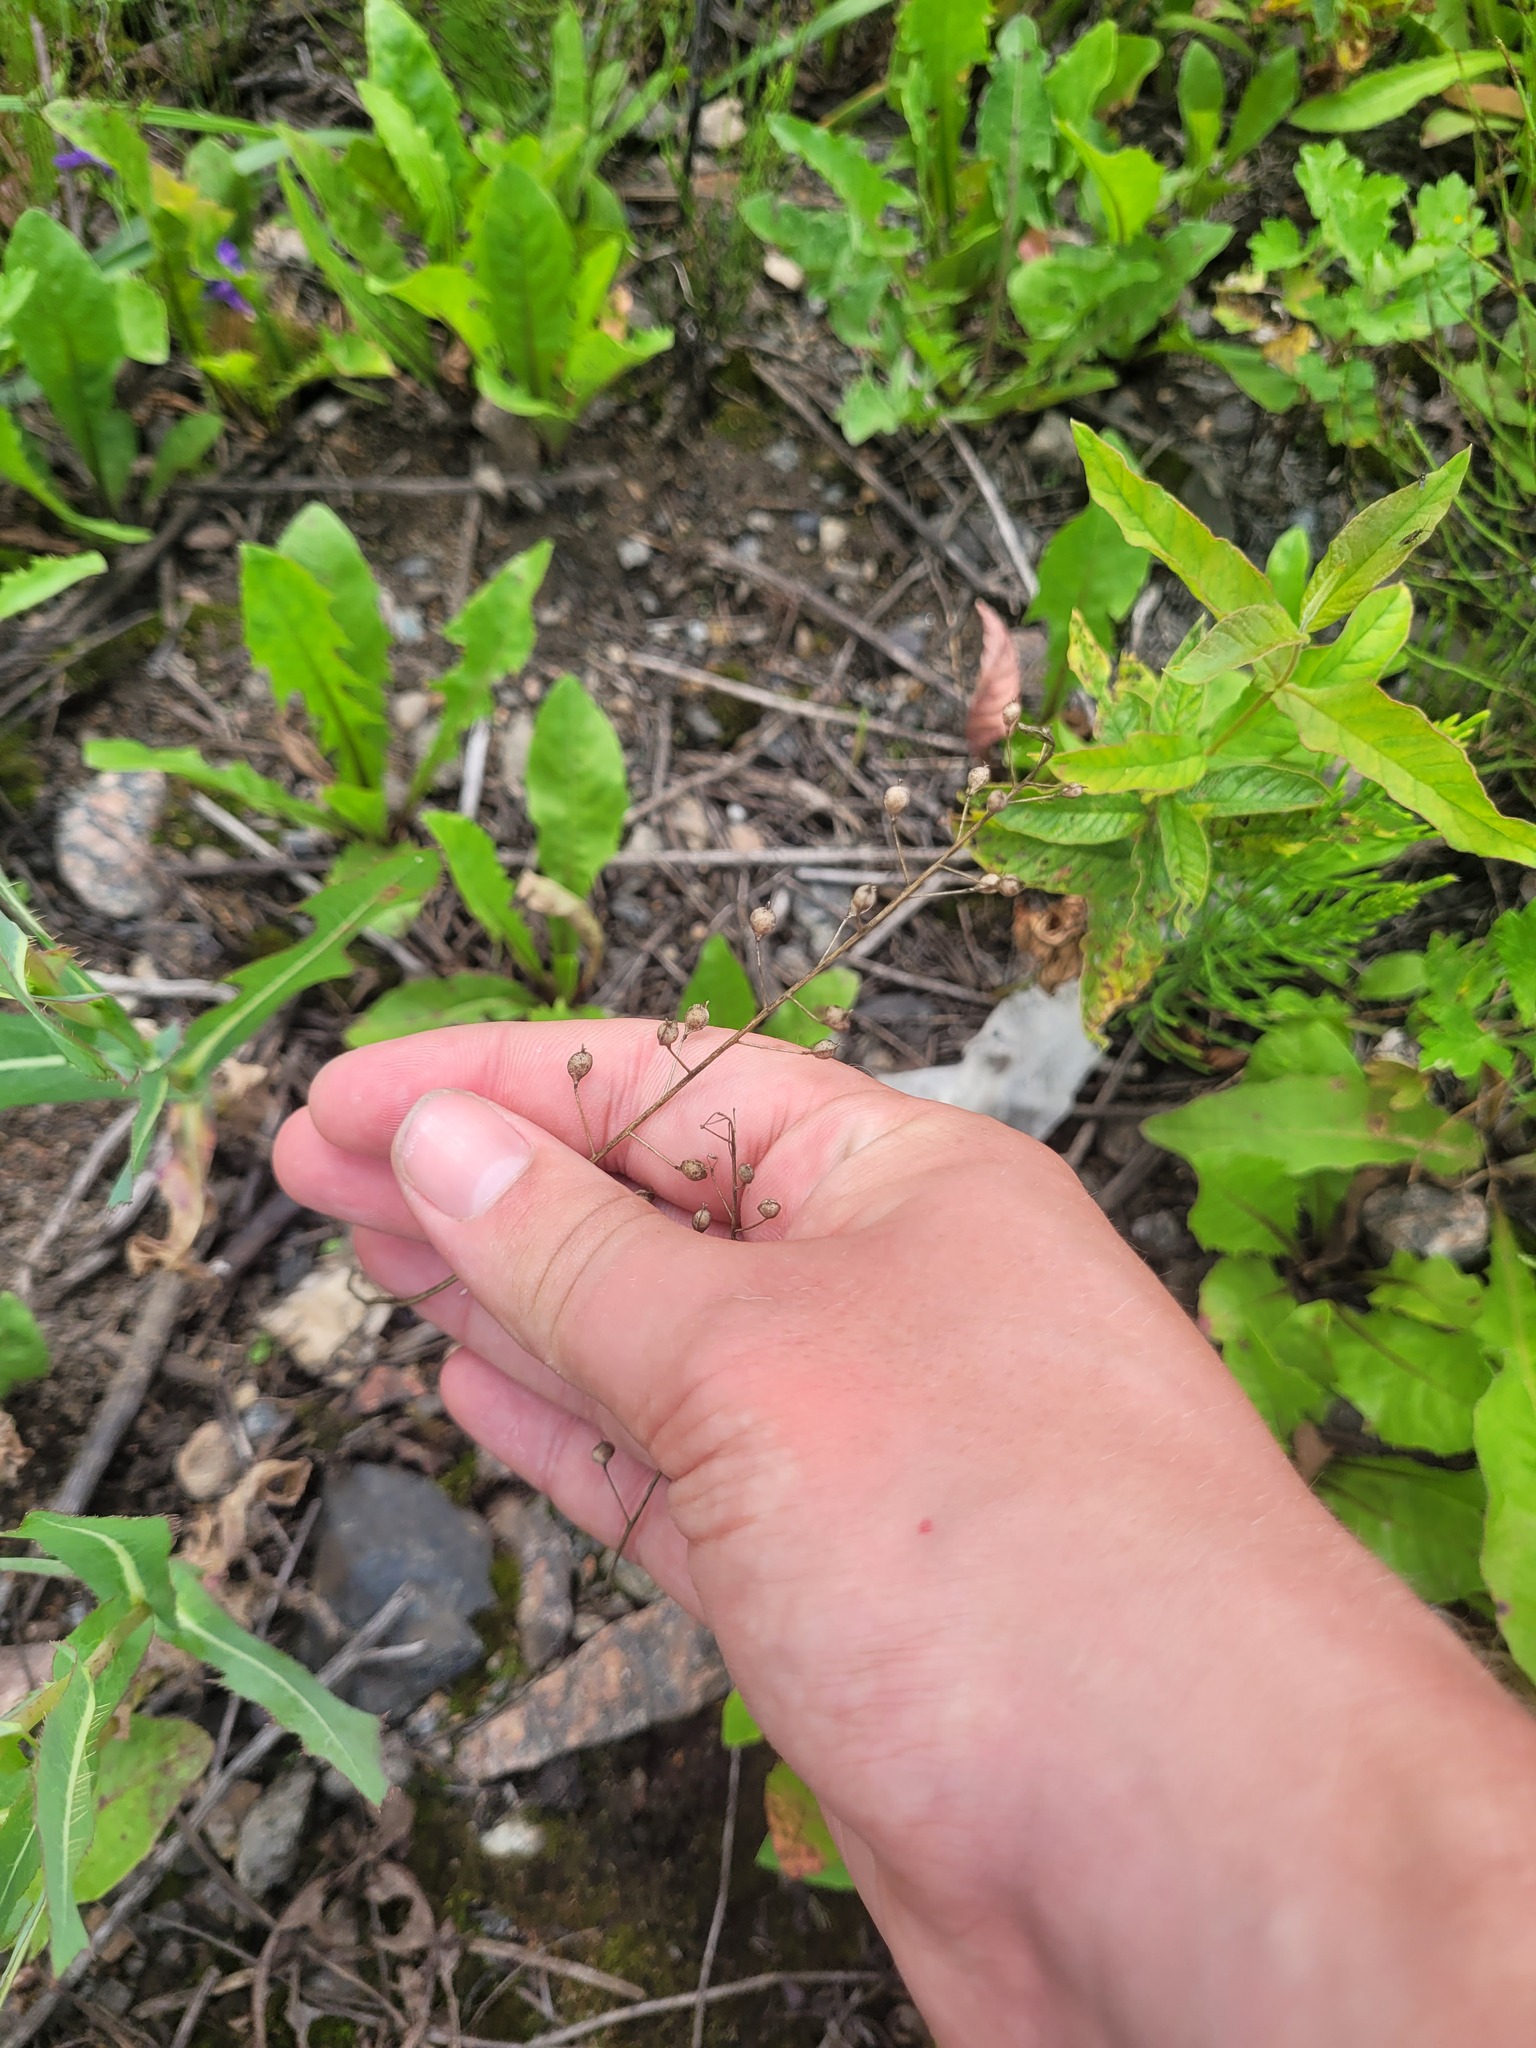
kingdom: Plantae
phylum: Tracheophyta
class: Magnoliopsida
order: Brassicales
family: Brassicaceae
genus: Camelina
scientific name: Camelina microcarpa
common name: Lesser gold-of-pleasure
